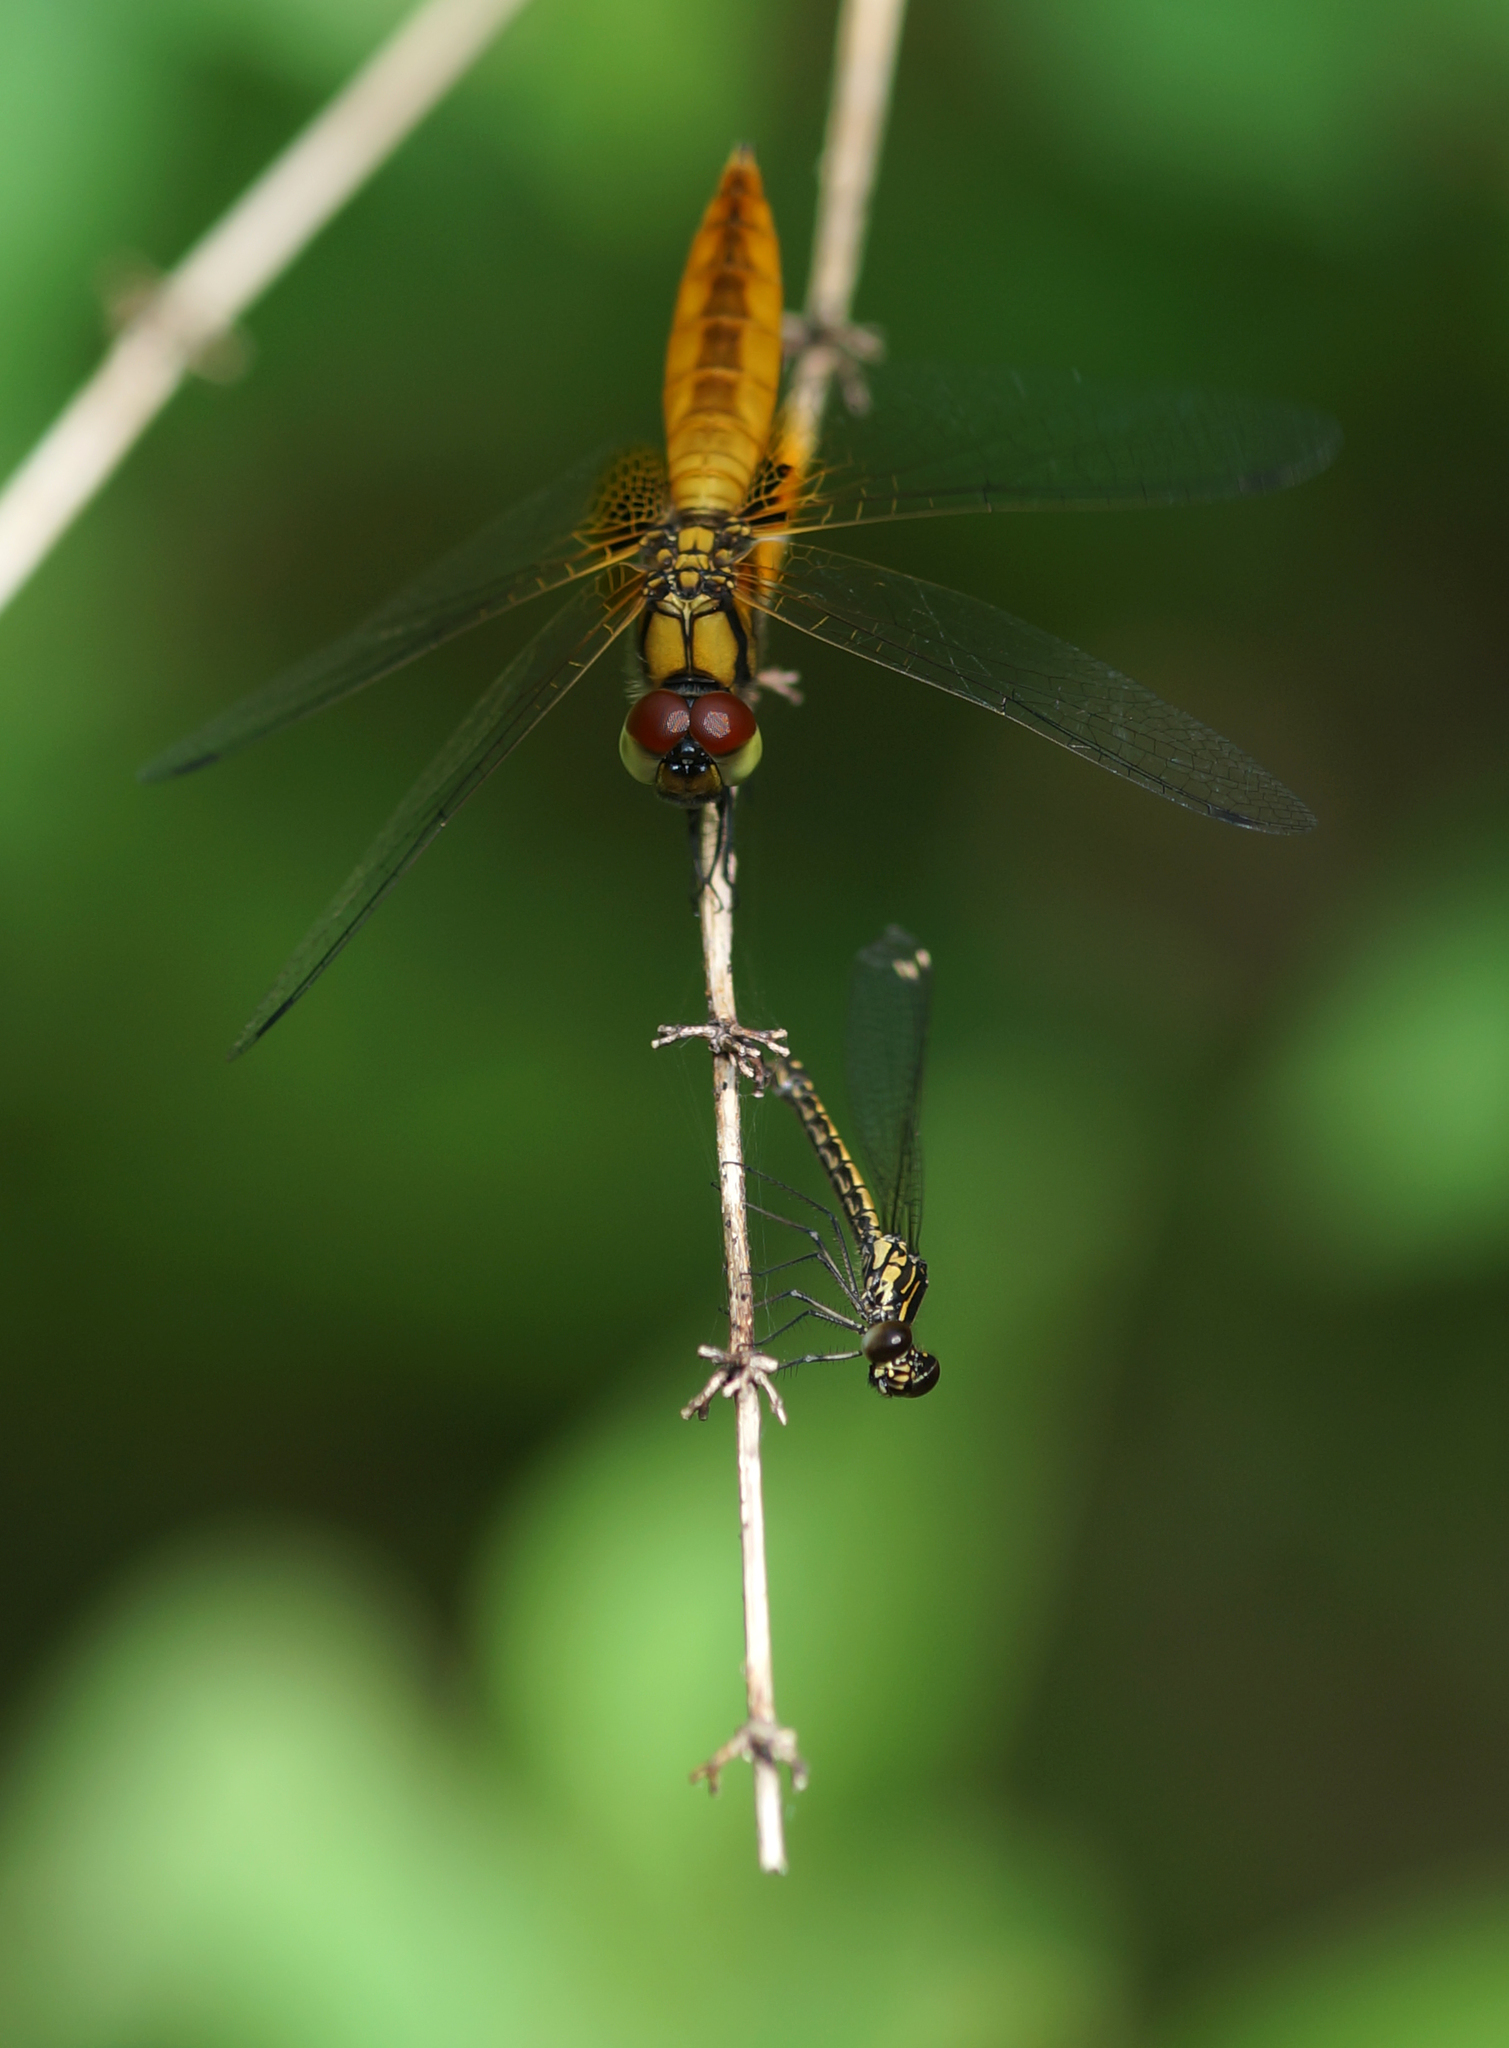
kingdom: Animalia
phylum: Arthropoda
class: Insecta
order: Odonata
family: Libellulidae
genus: Aethriamanta
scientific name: Aethriamanta brevipennis
